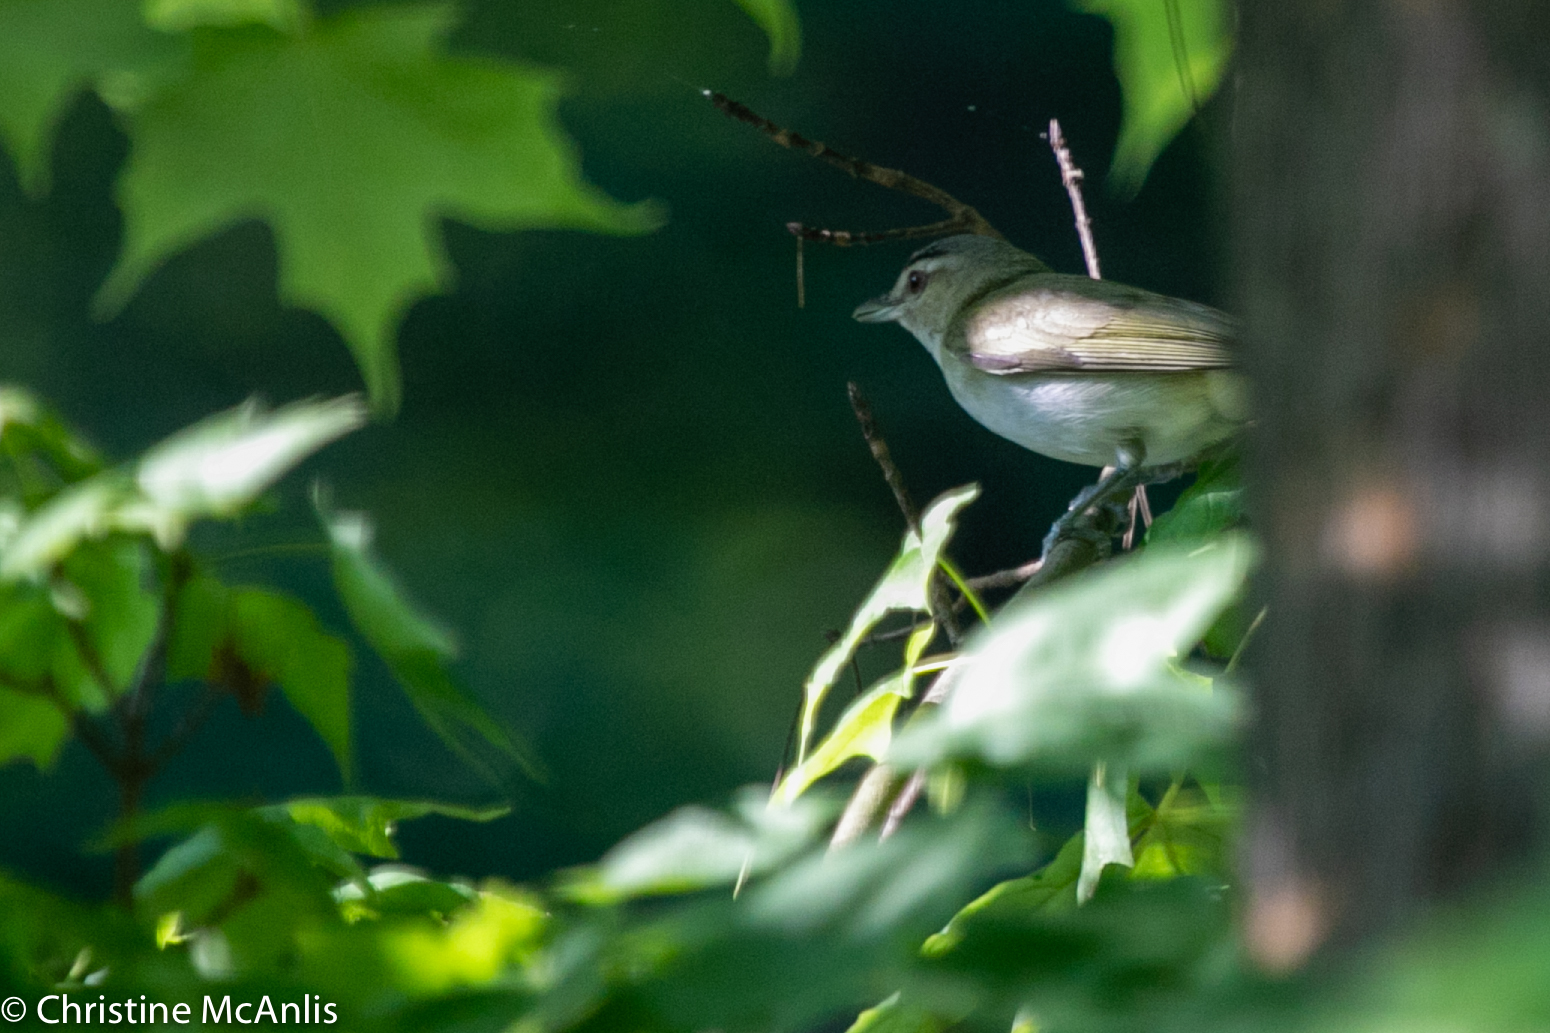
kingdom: Animalia
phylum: Chordata
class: Aves
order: Passeriformes
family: Vireonidae
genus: Vireo
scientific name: Vireo olivaceus
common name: Red-eyed vireo
